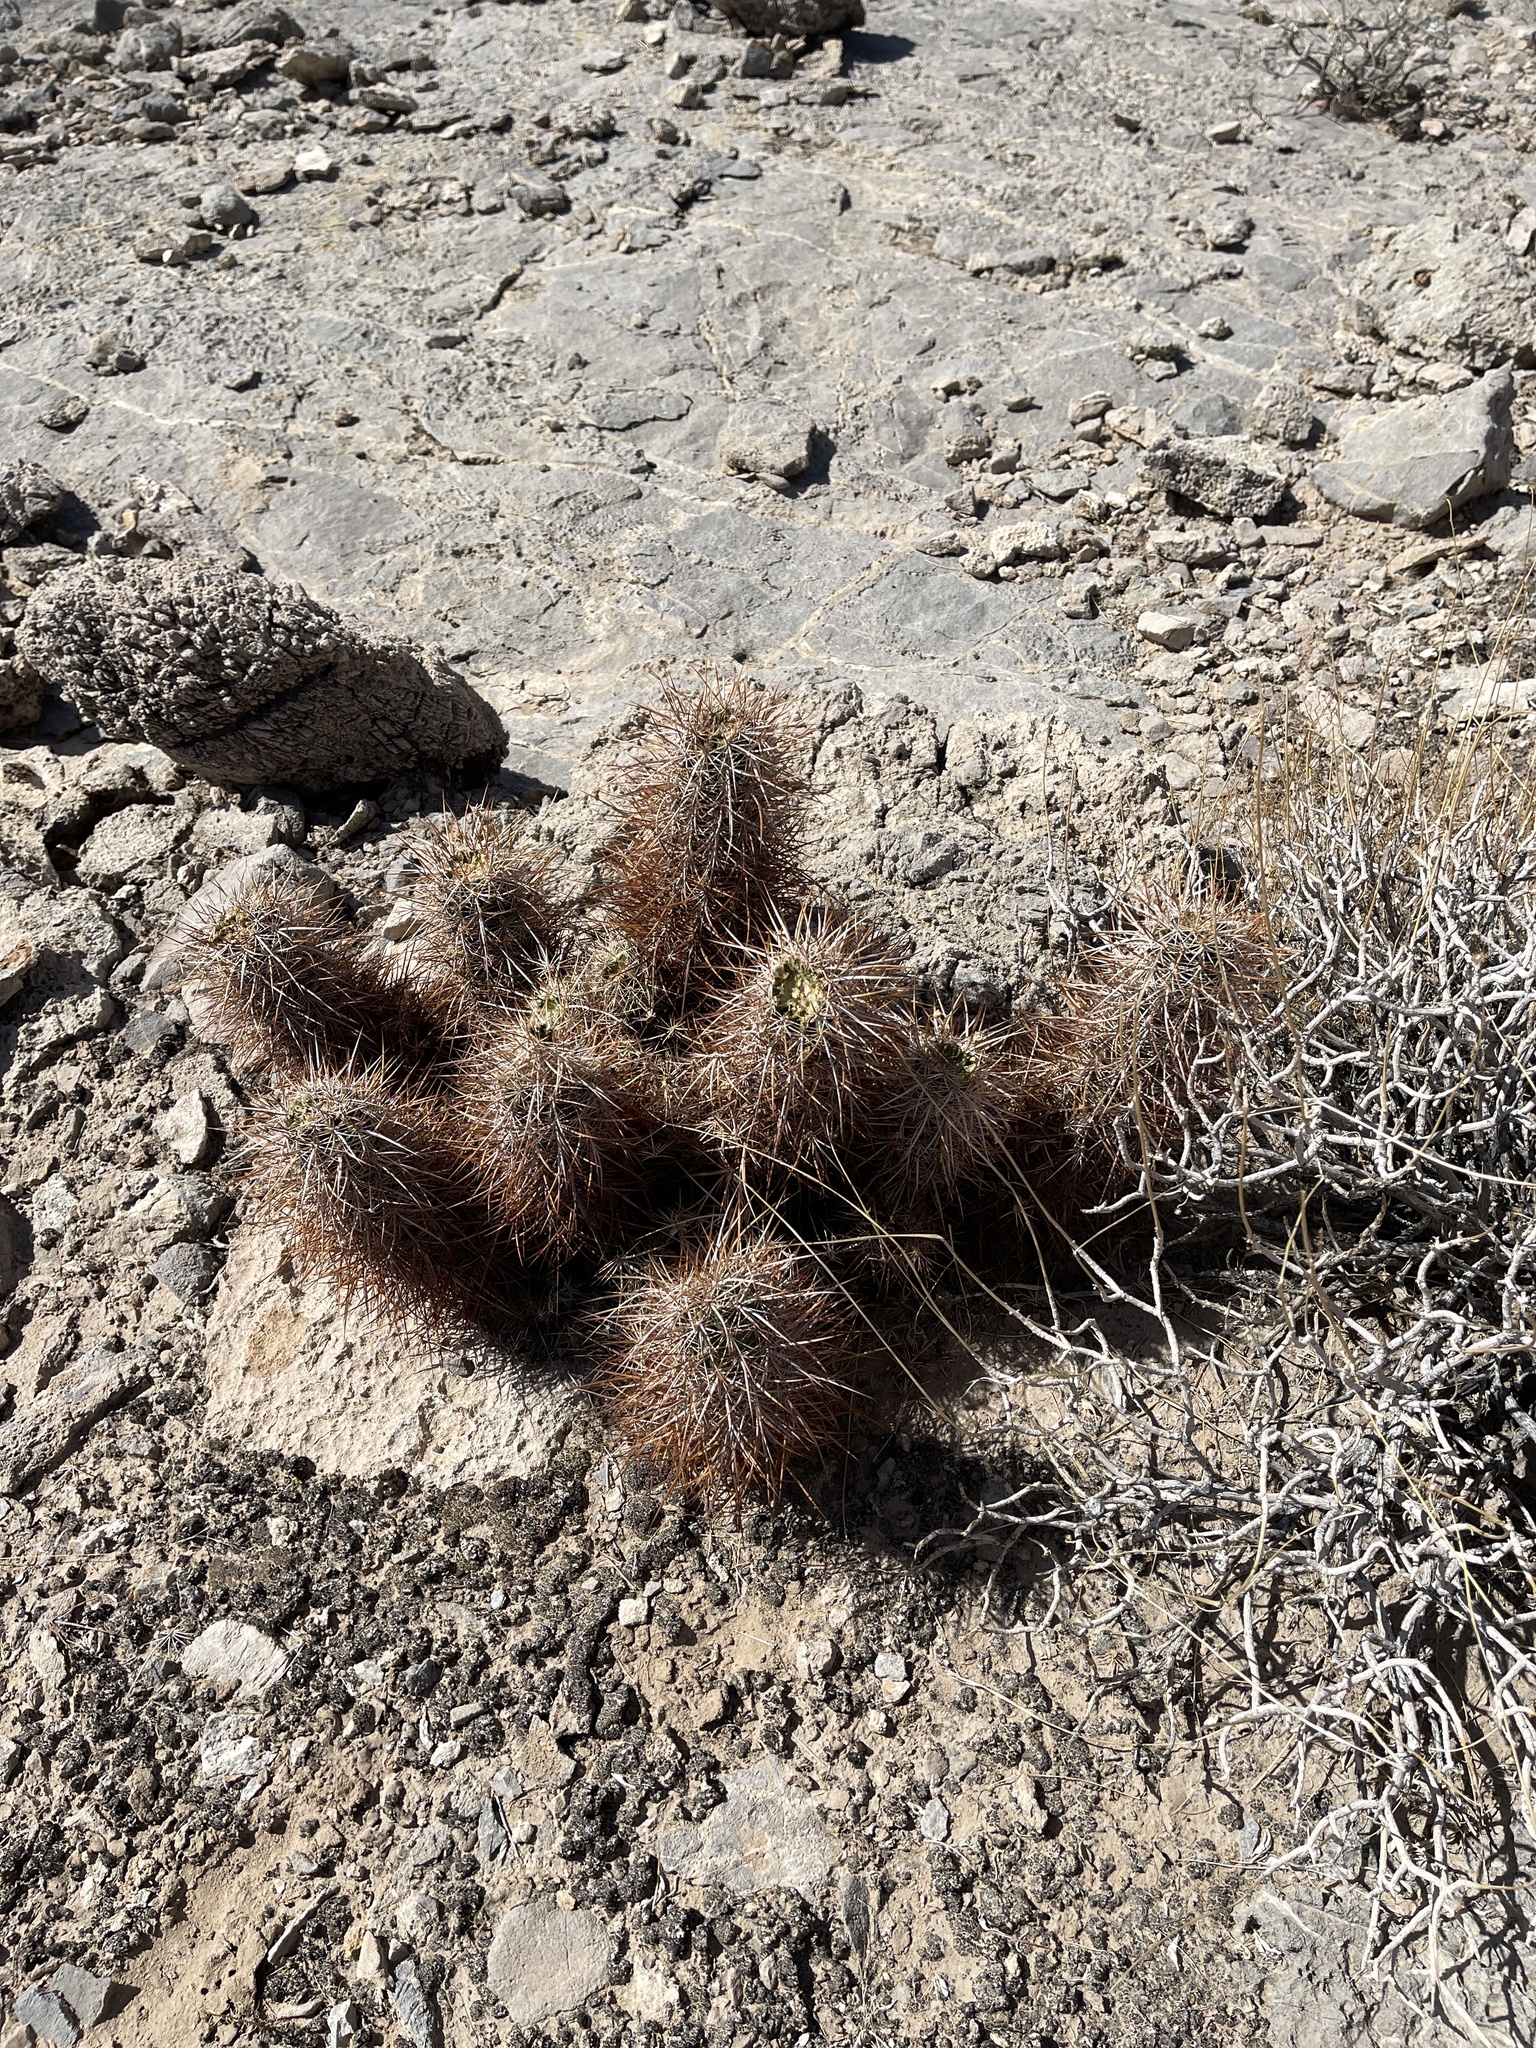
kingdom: Plantae
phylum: Tracheophyta
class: Magnoliopsida
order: Caryophyllales
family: Cactaceae
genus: Echinocereus
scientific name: Echinocereus engelmannii
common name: Engelmann's hedgehog cactus
